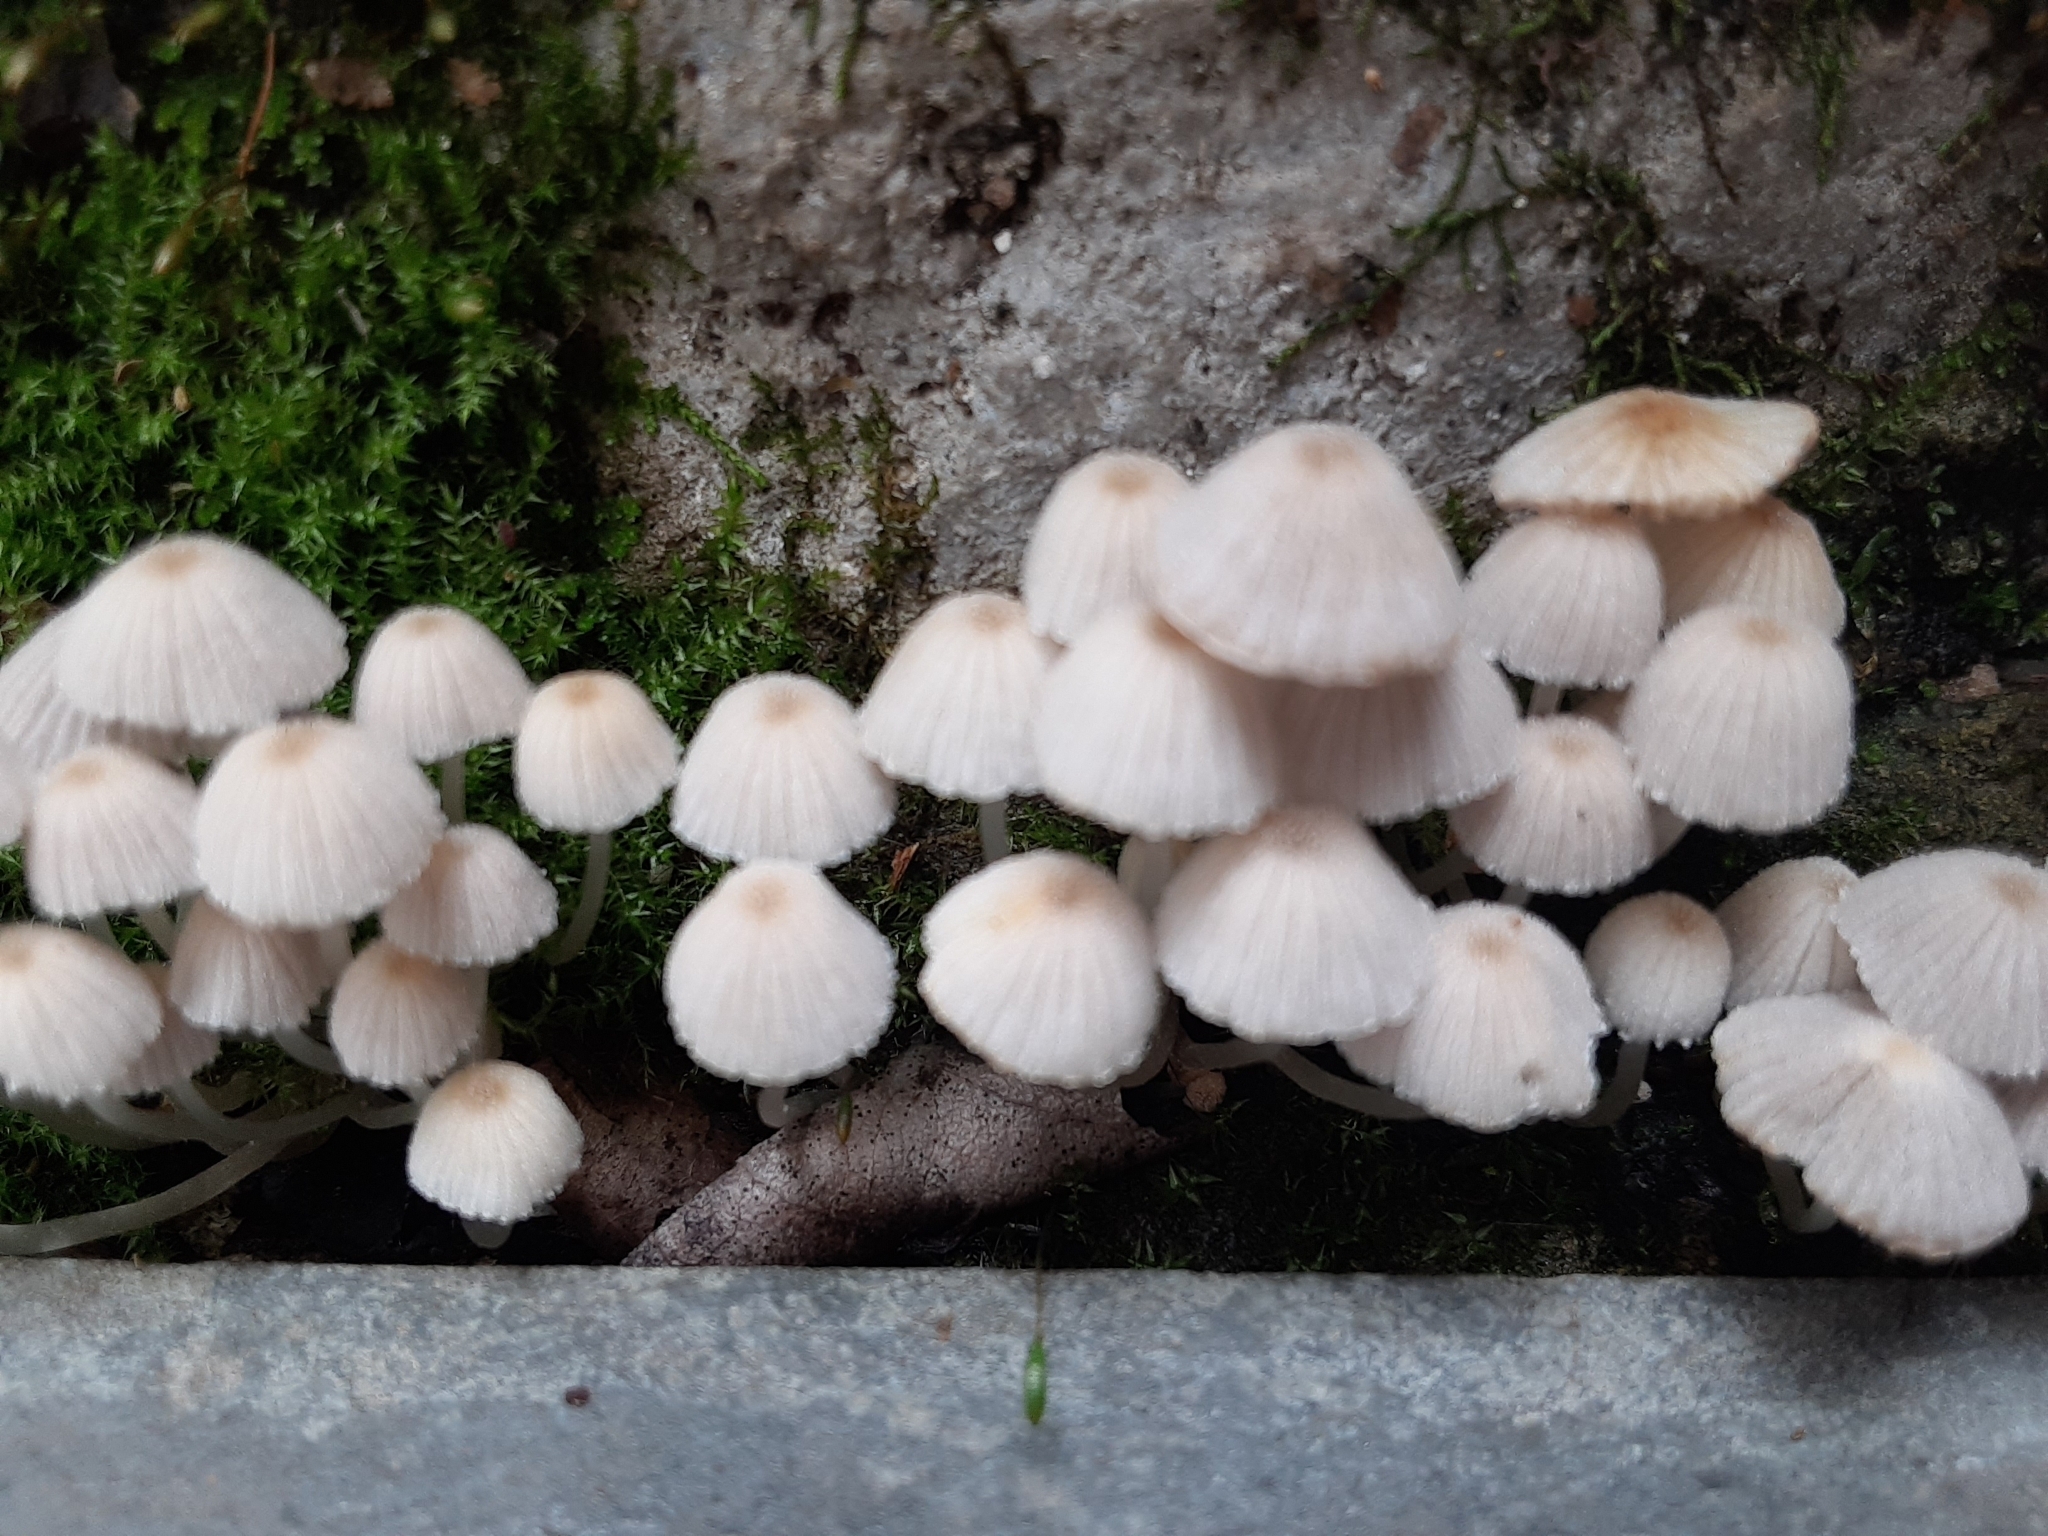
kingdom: Fungi
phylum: Basidiomycota
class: Agaricomycetes
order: Agaricales
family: Psathyrellaceae
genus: Coprinellus
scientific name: Coprinellus disseminatus
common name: Fairies' bonnets
